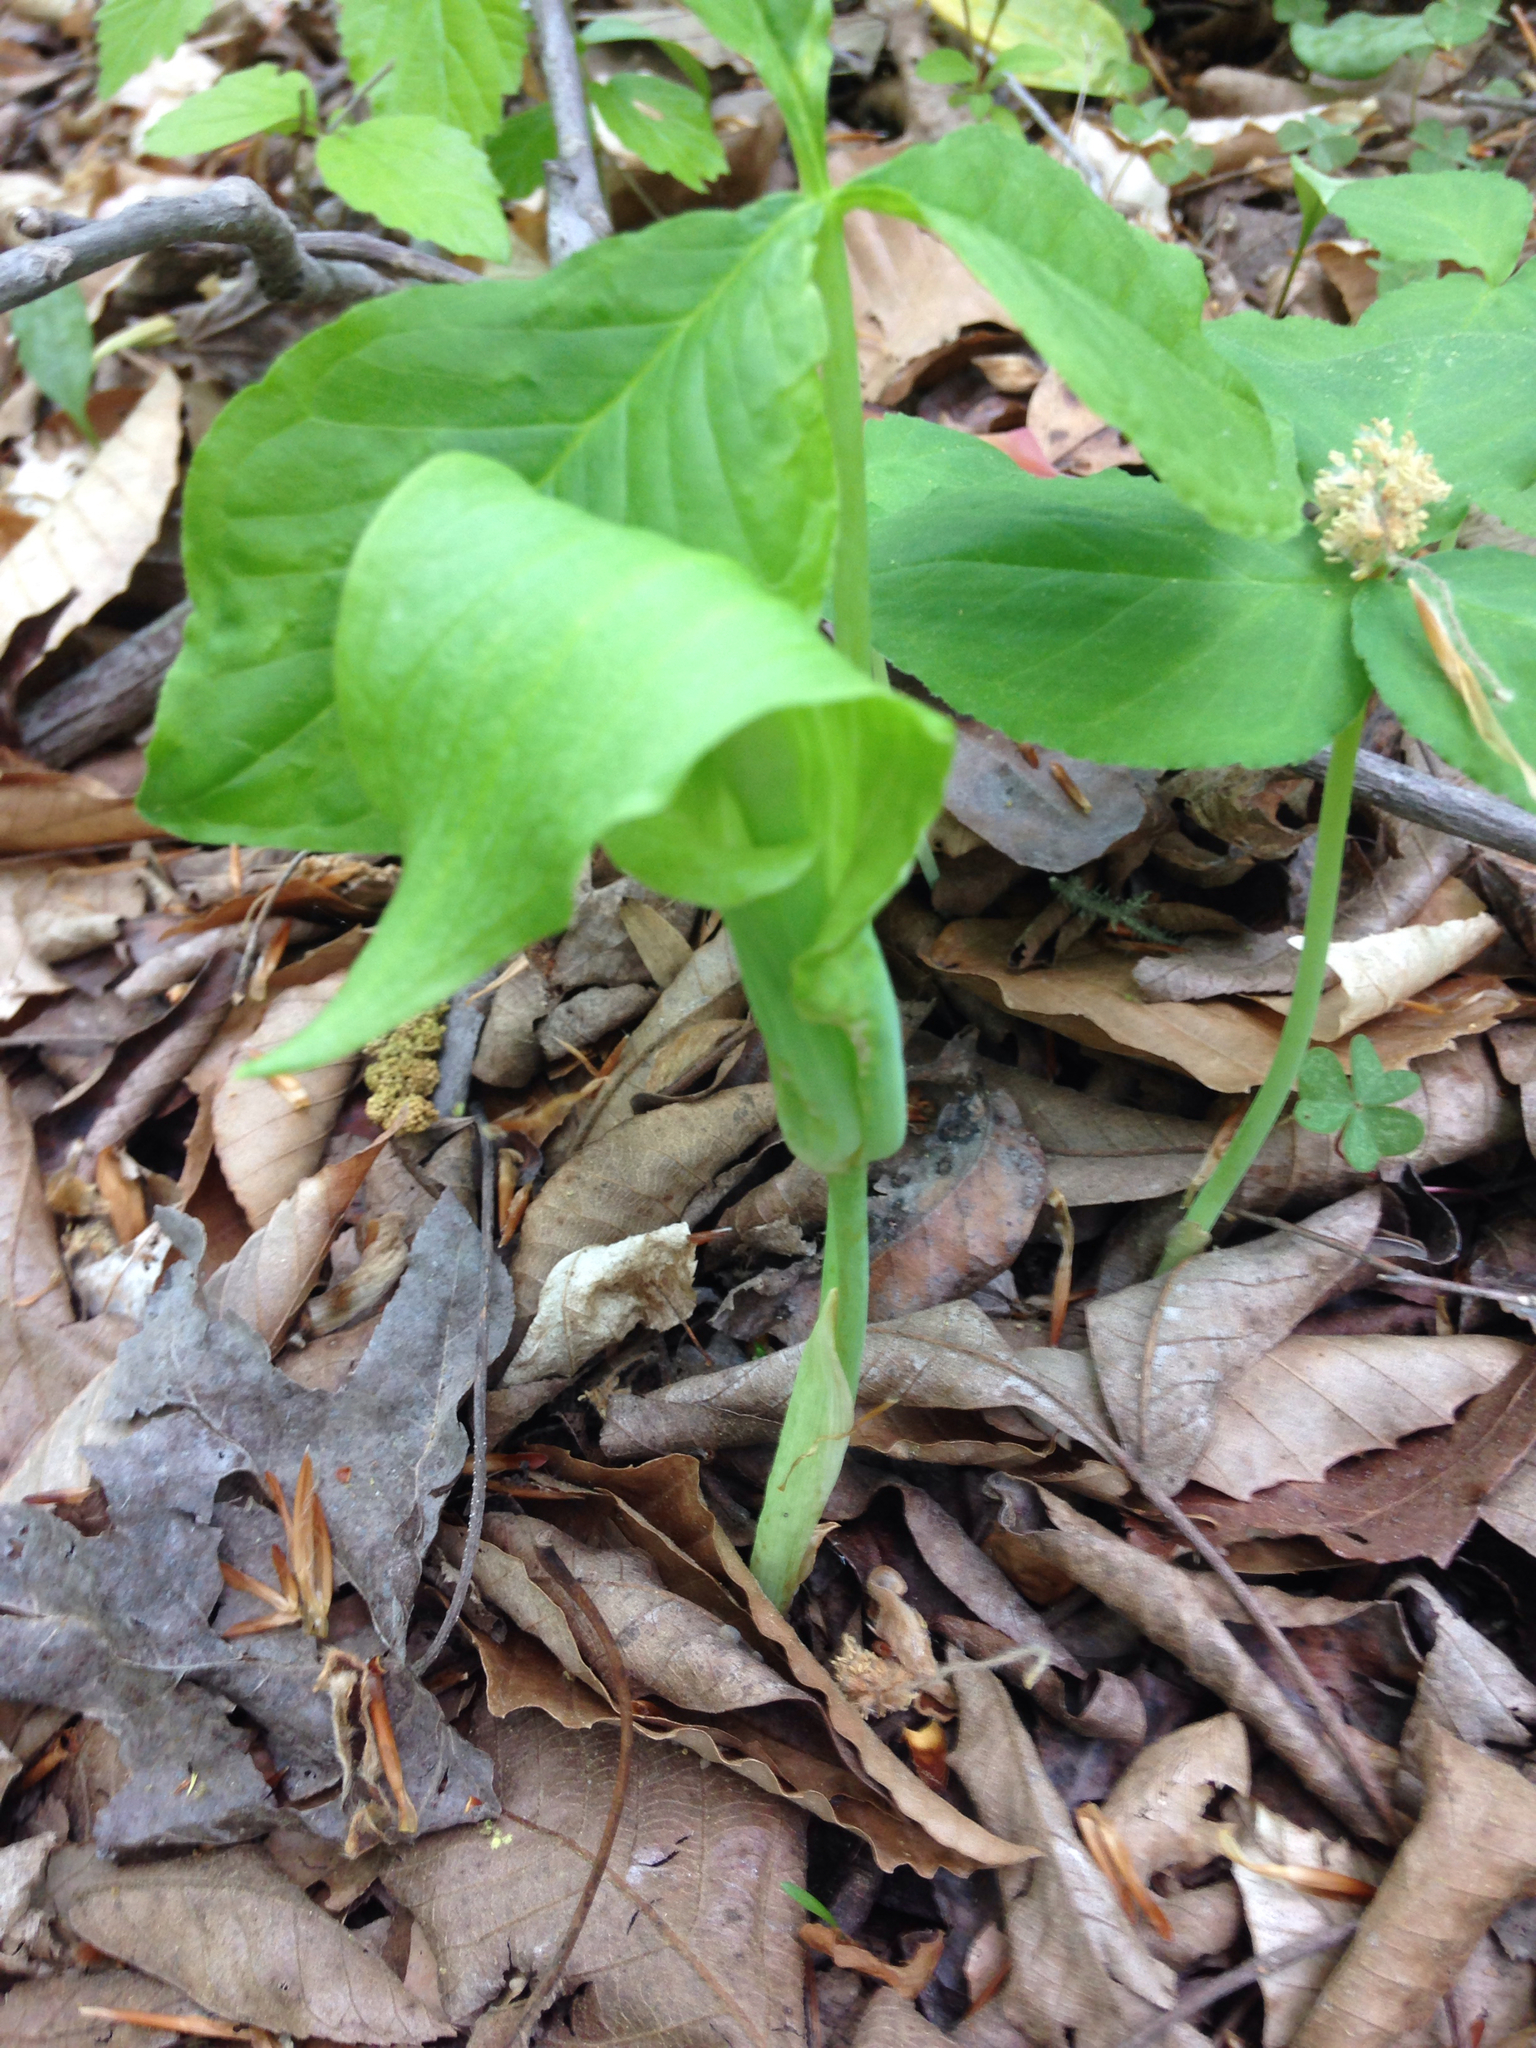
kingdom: Plantae
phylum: Tracheophyta
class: Liliopsida
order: Alismatales
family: Araceae
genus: Arisaema
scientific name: Arisaema triphyllum
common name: Jack-in-the-pulpit
